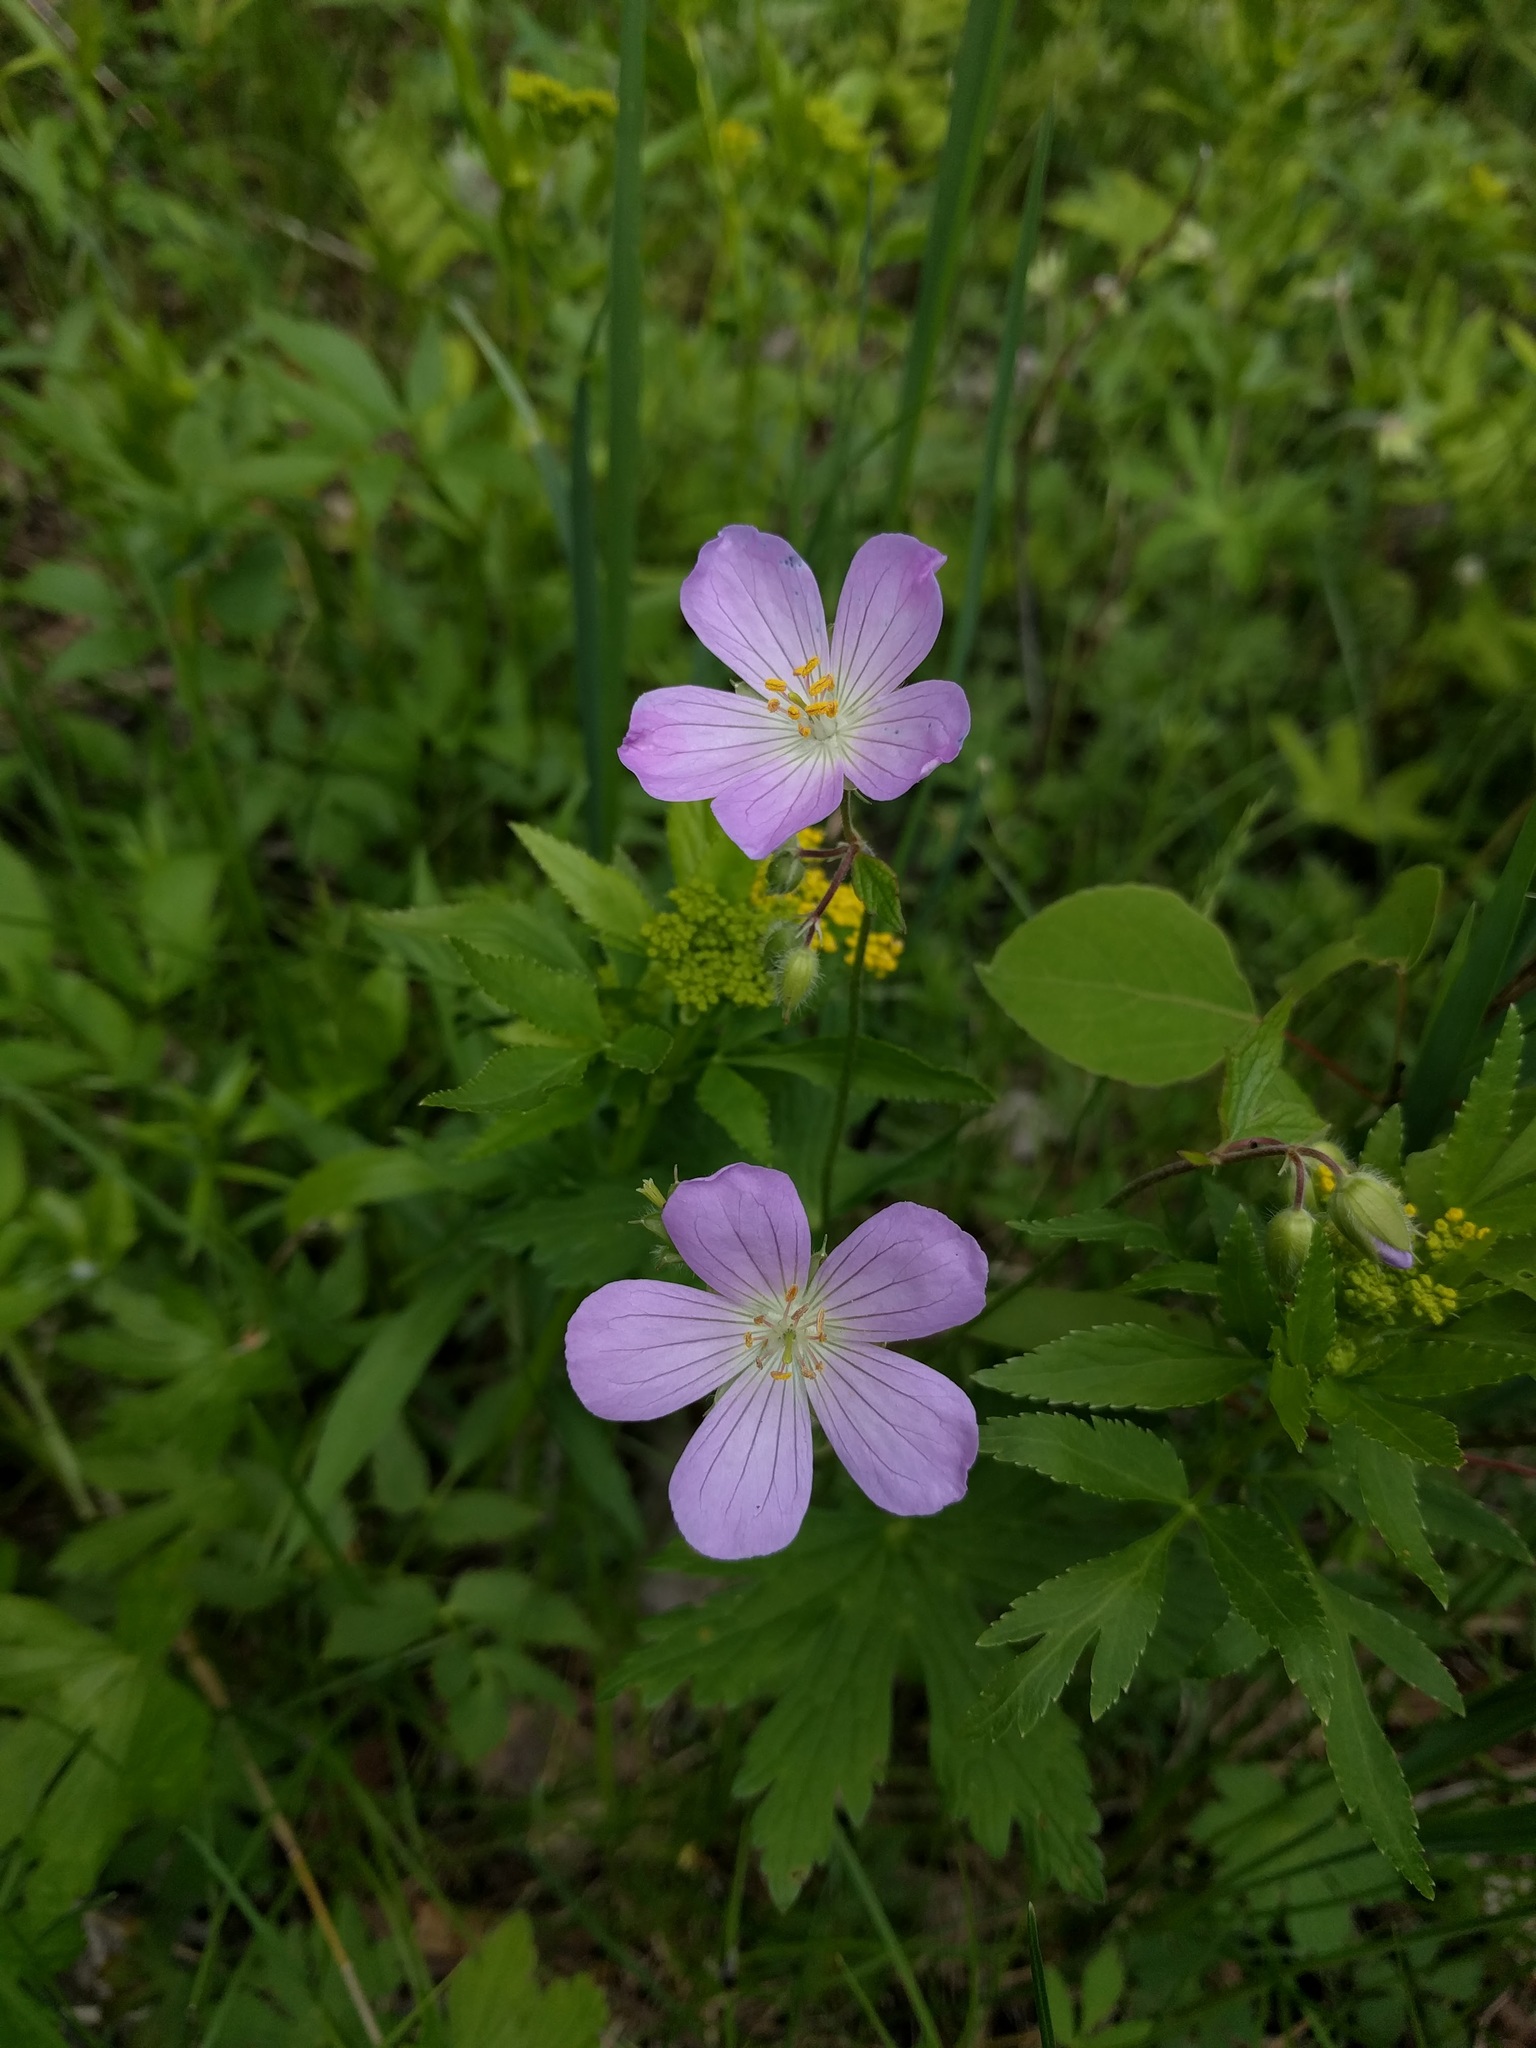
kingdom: Plantae
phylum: Tracheophyta
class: Magnoliopsida
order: Geraniales
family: Geraniaceae
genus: Geranium
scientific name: Geranium maculatum
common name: Spotted geranium
